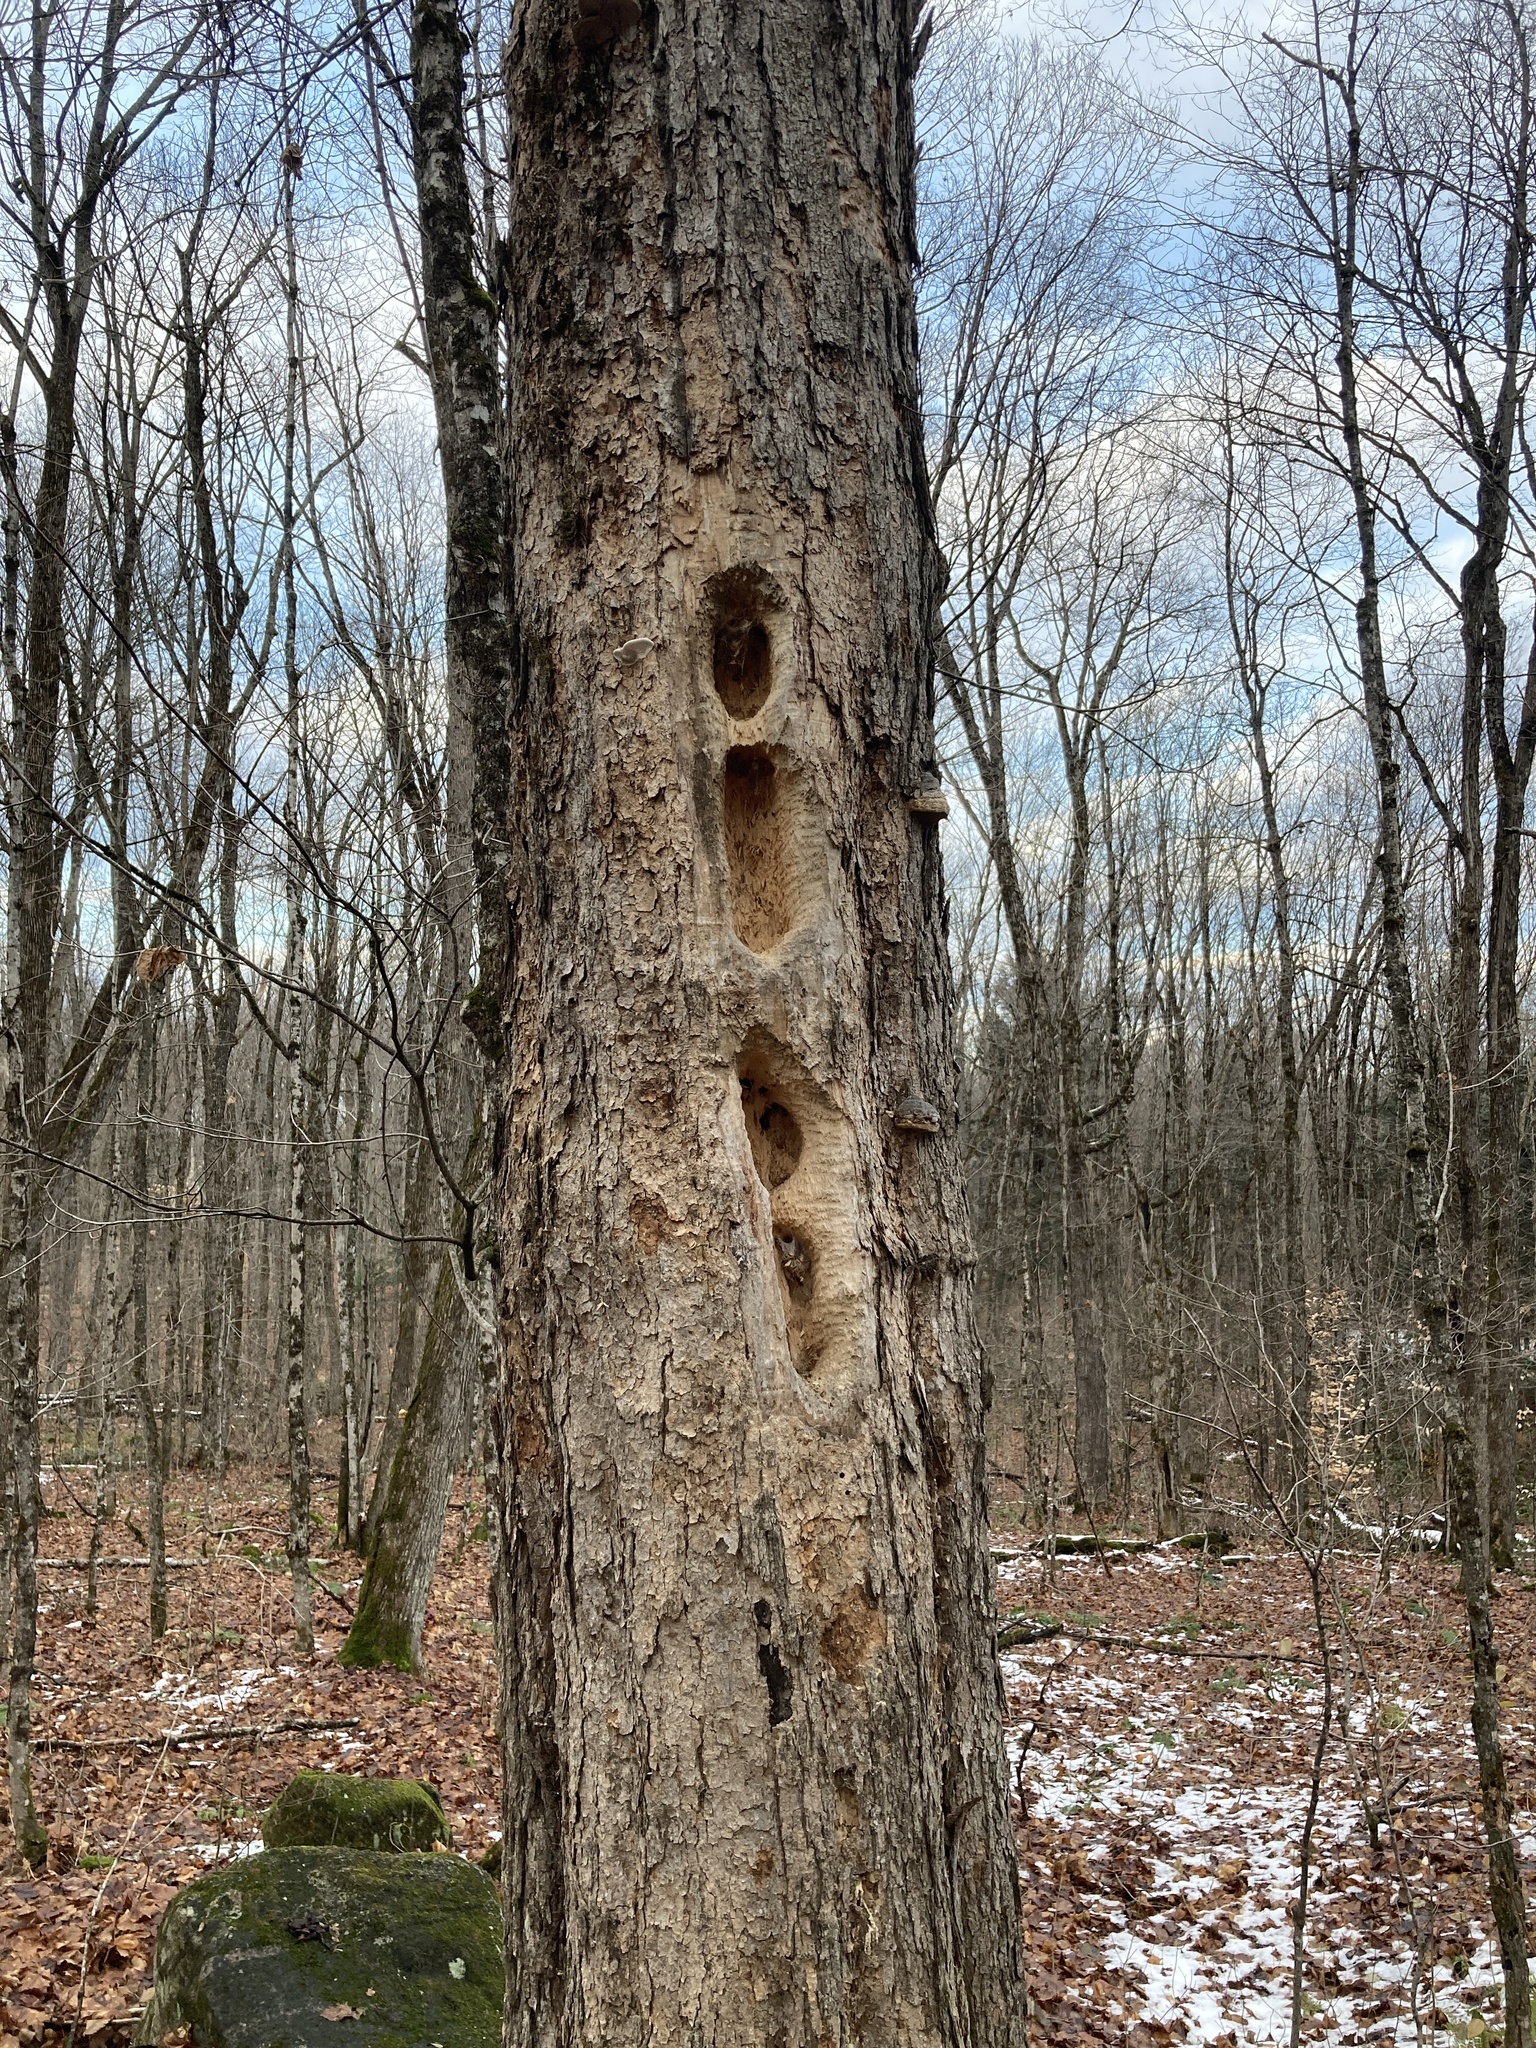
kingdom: Animalia
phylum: Chordata
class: Aves
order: Piciformes
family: Picidae
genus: Dryocopus
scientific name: Dryocopus pileatus
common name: Pileated woodpecker
